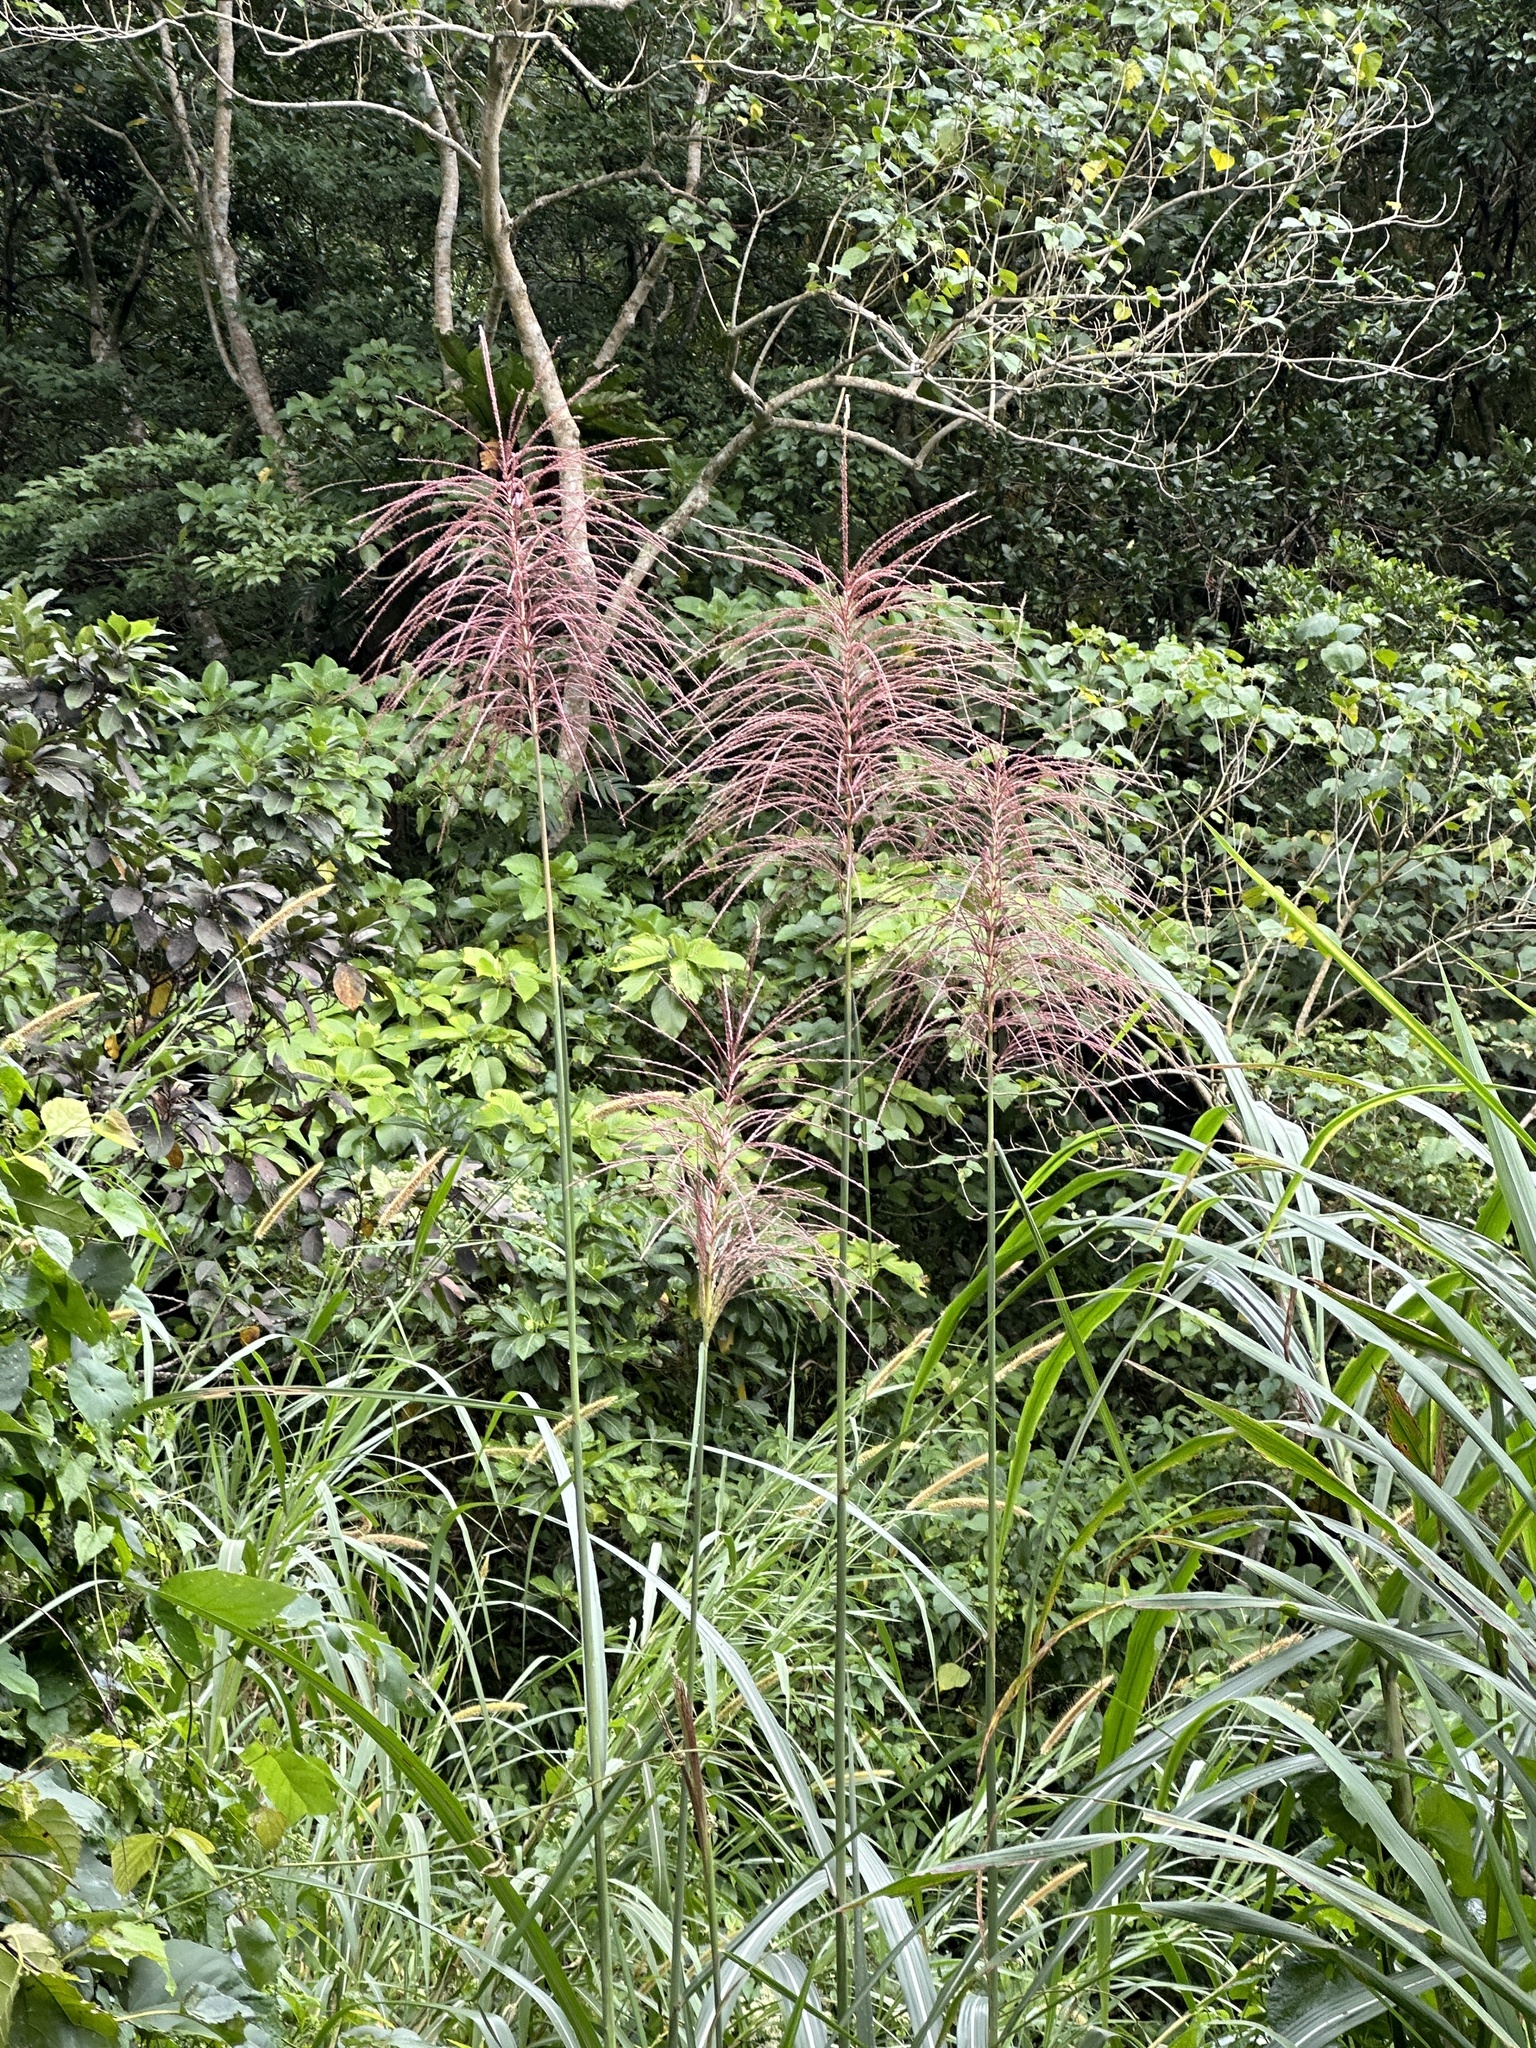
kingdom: Plantae
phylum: Tracheophyta
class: Liliopsida
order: Poales
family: Poaceae
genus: Miscanthus
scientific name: Miscanthus sinensis
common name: Chinese silvergrass
